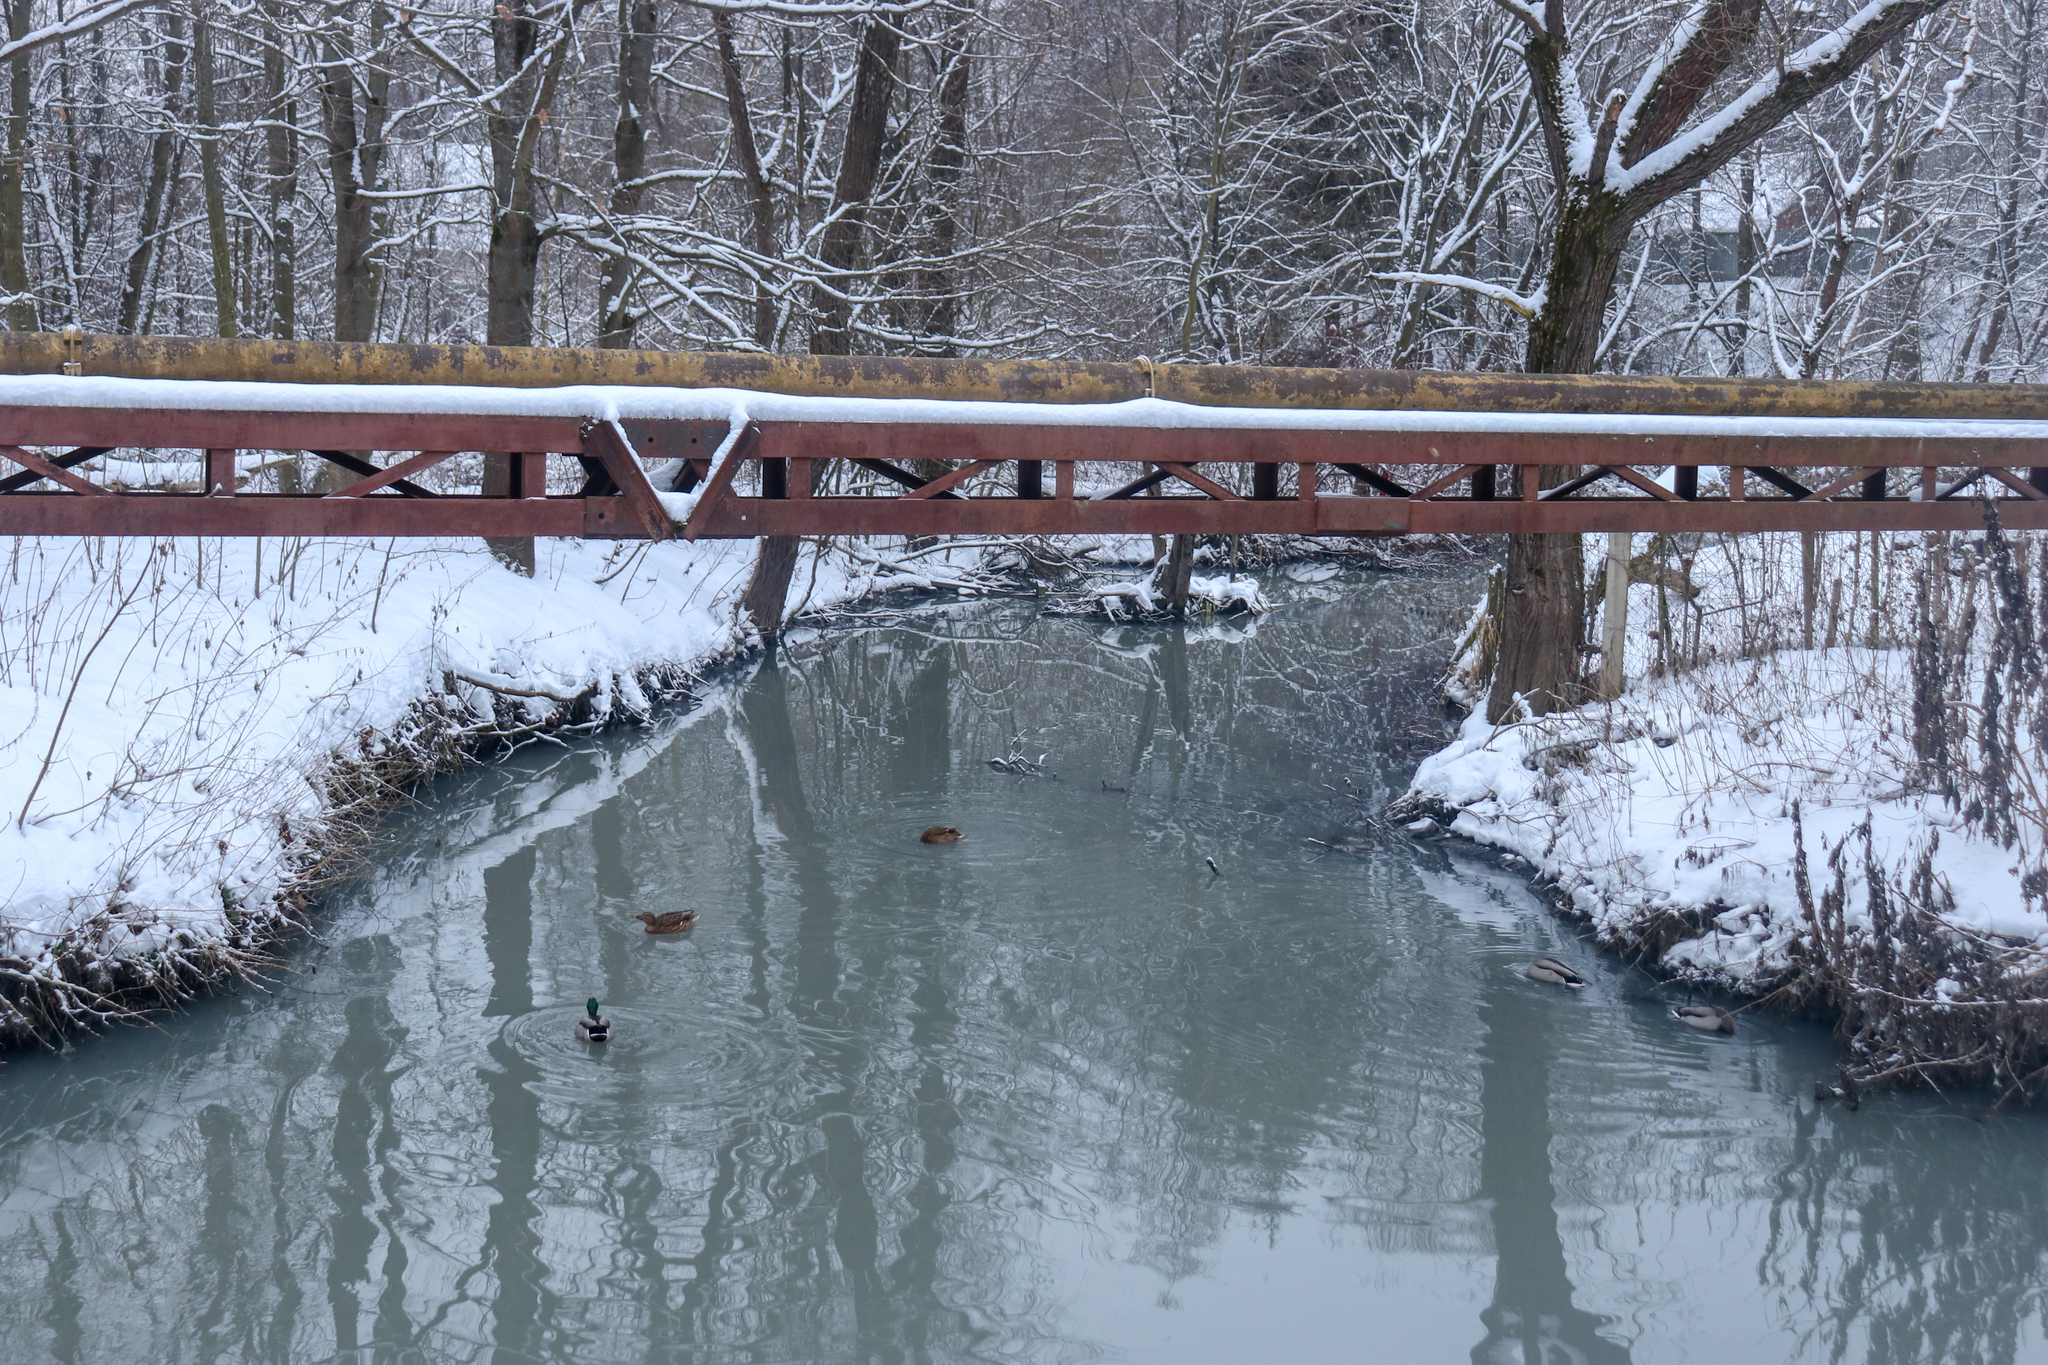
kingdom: Animalia
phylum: Chordata
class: Aves
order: Anseriformes
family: Anatidae
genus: Anas
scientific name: Anas platyrhynchos
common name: Mallard
